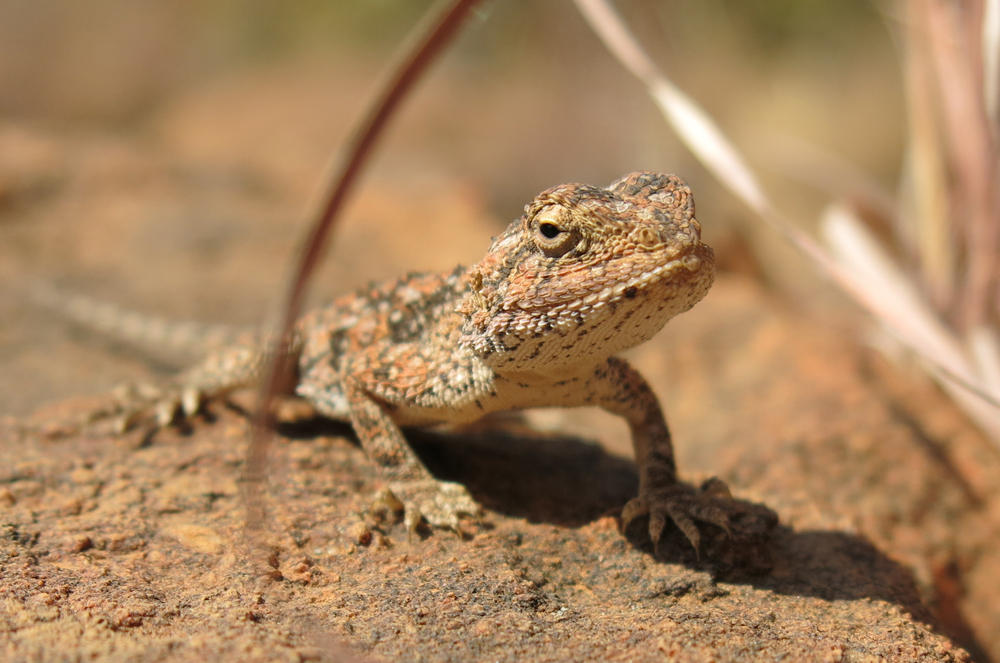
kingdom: Animalia
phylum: Chordata
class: Squamata
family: Agamidae
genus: Agama
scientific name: Agama aculeata
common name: Common ground agama
